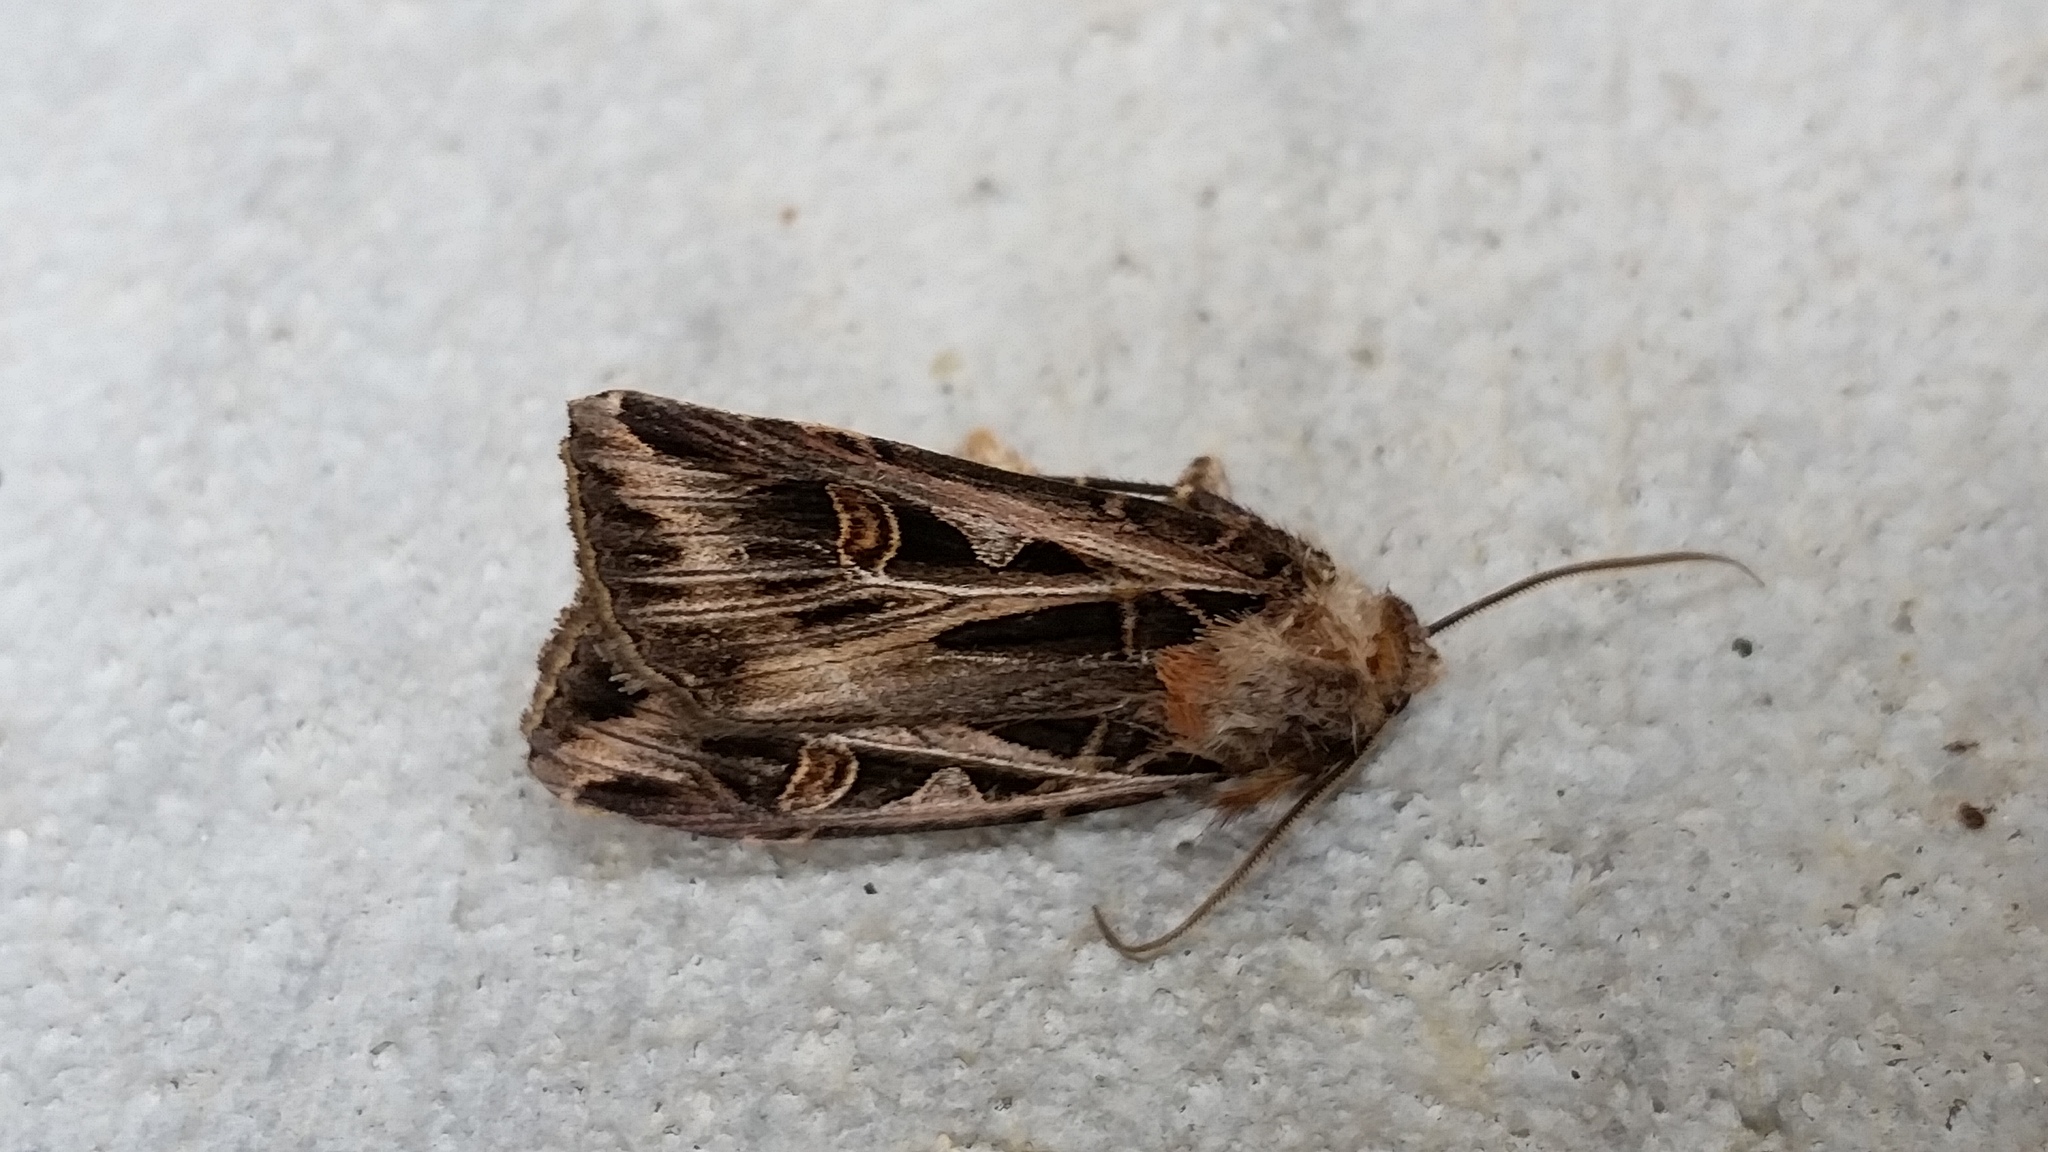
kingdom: Animalia
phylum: Arthropoda
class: Insecta
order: Lepidoptera
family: Noctuidae
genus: Feltia
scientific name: Feltia jaculifera
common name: Dingy cutworm moth
